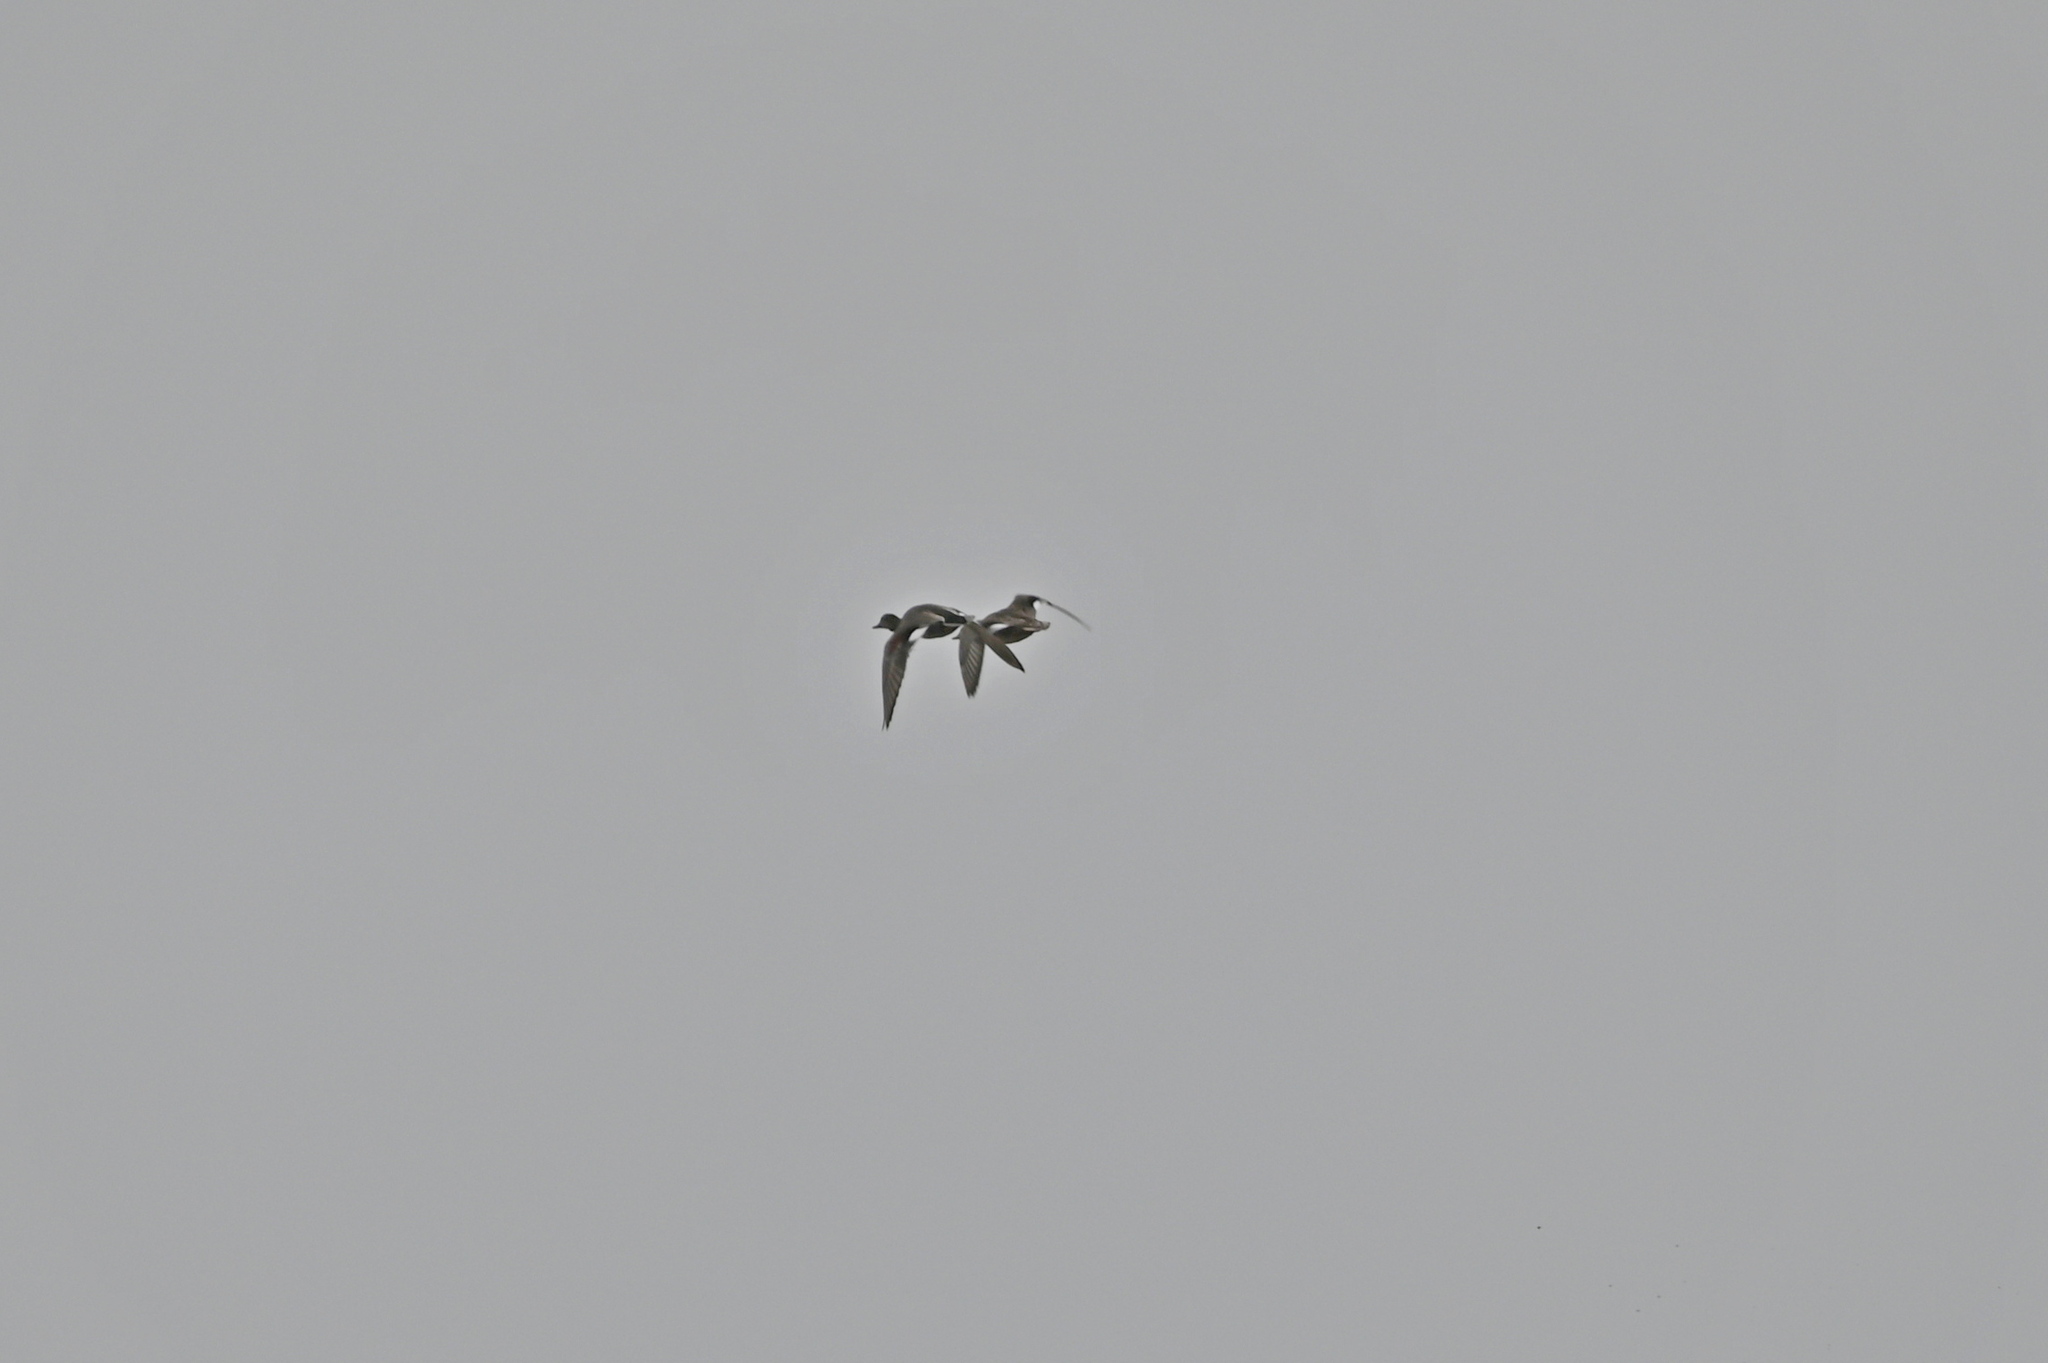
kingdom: Animalia
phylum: Chordata
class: Aves
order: Anseriformes
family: Anatidae
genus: Mareca
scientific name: Mareca strepera
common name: Gadwall
